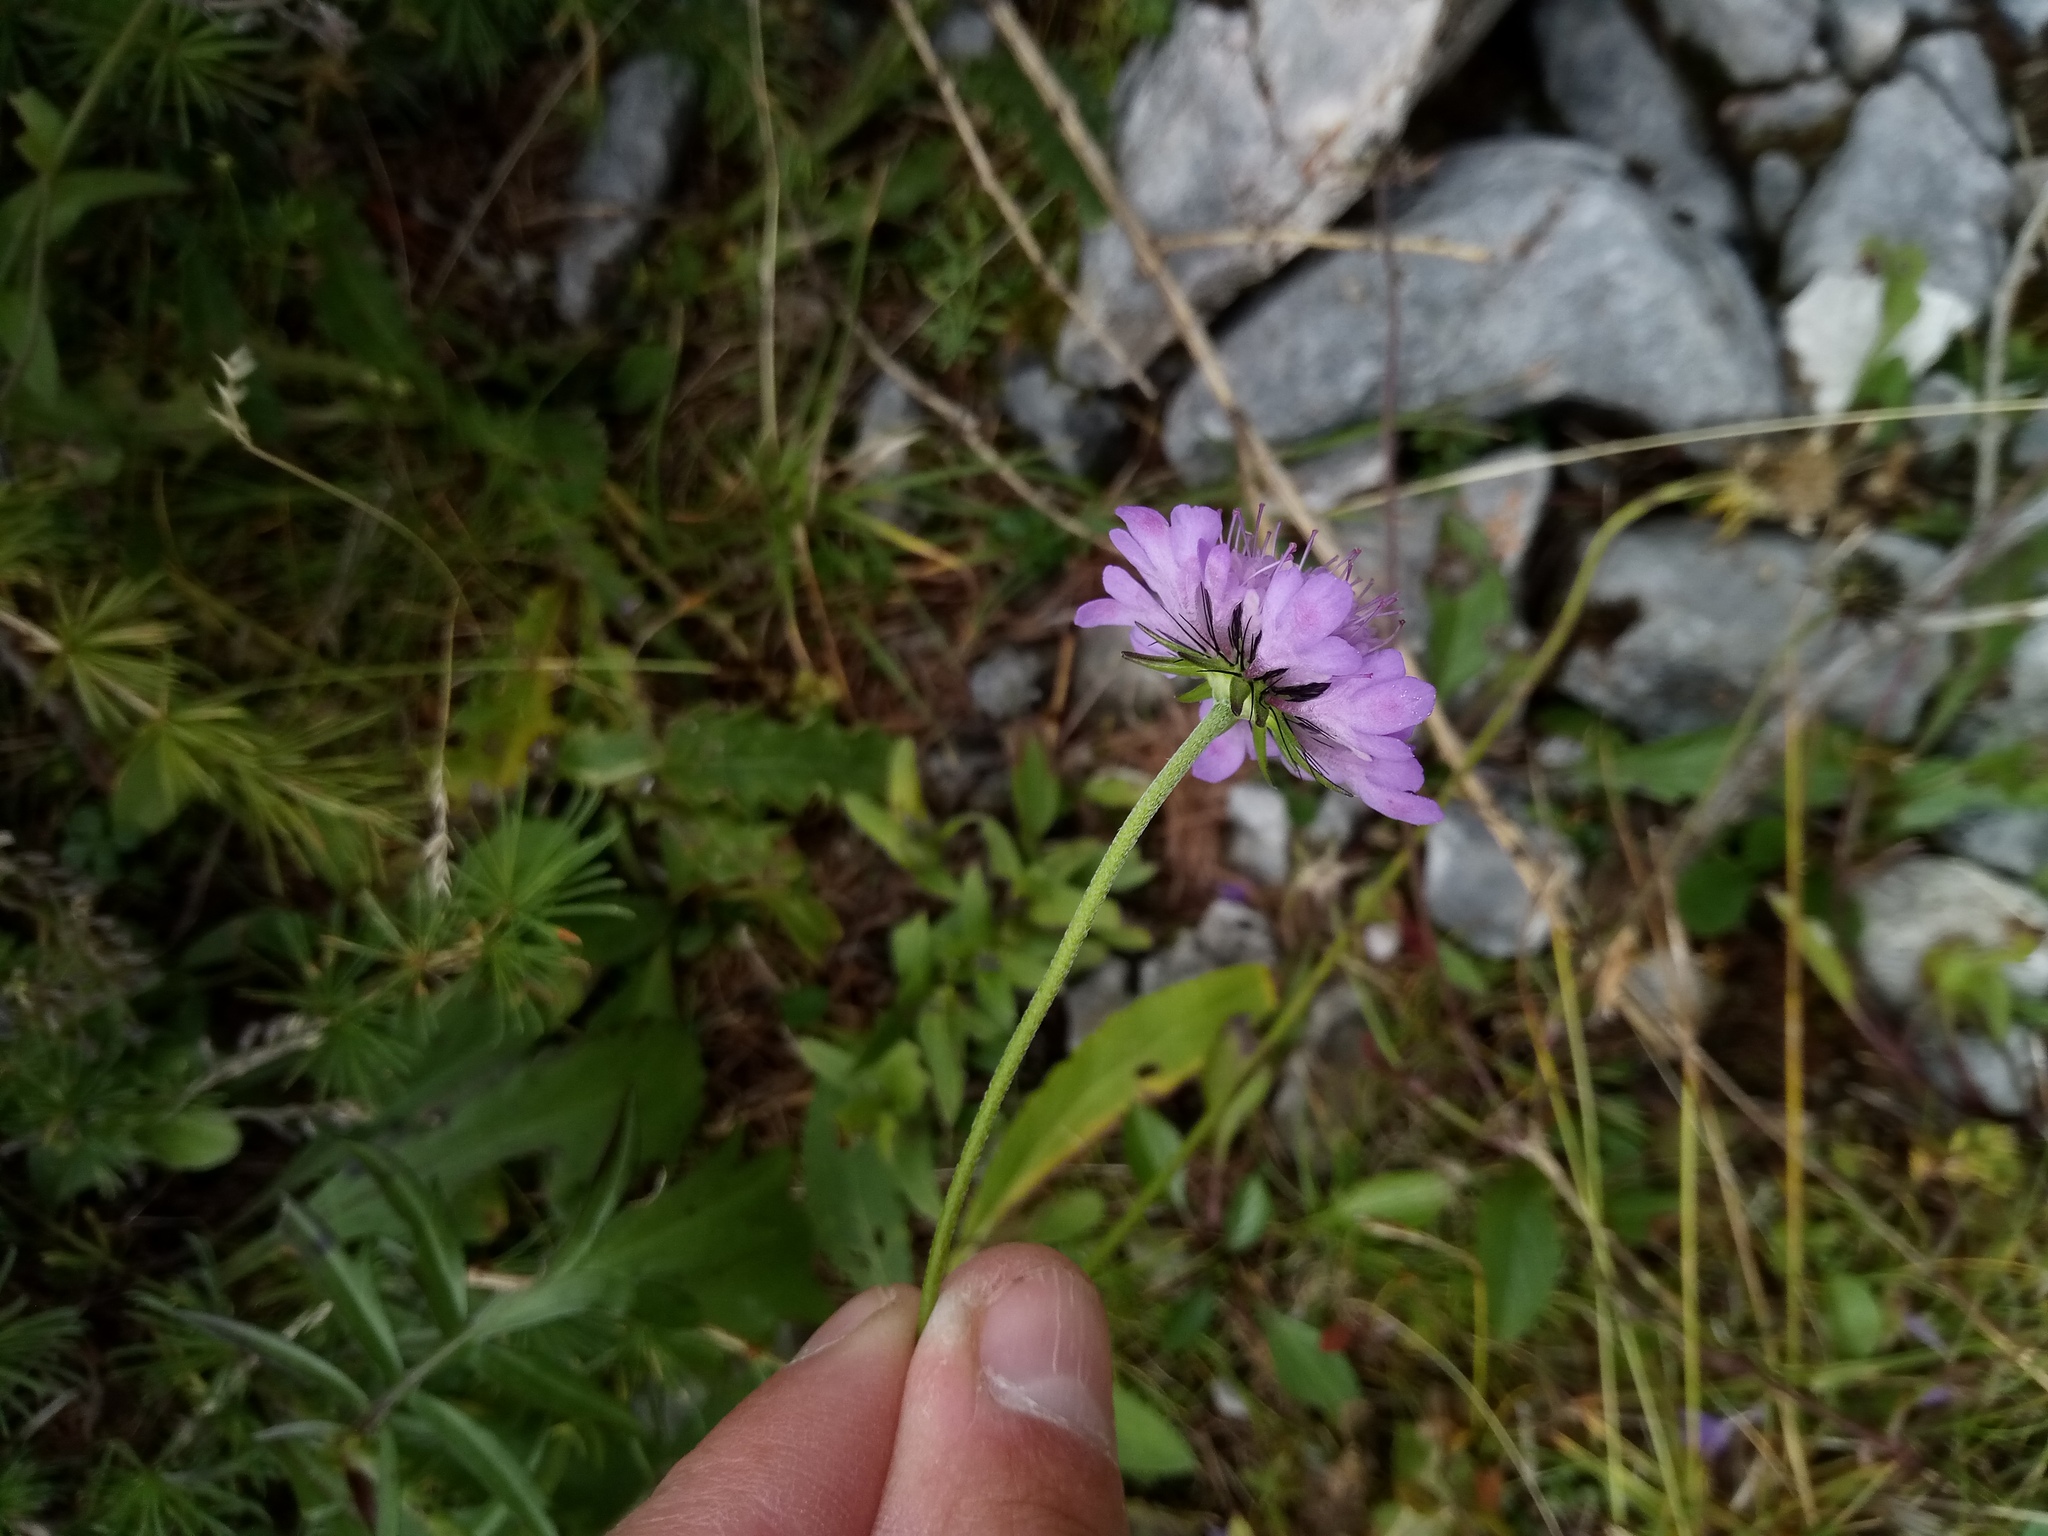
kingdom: Plantae
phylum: Tracheophyta
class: Magnoliopsida
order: Dipsacales
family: Caprifoliaceae
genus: Scabiosa
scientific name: Scabiosa lucida
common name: Shining scabious
